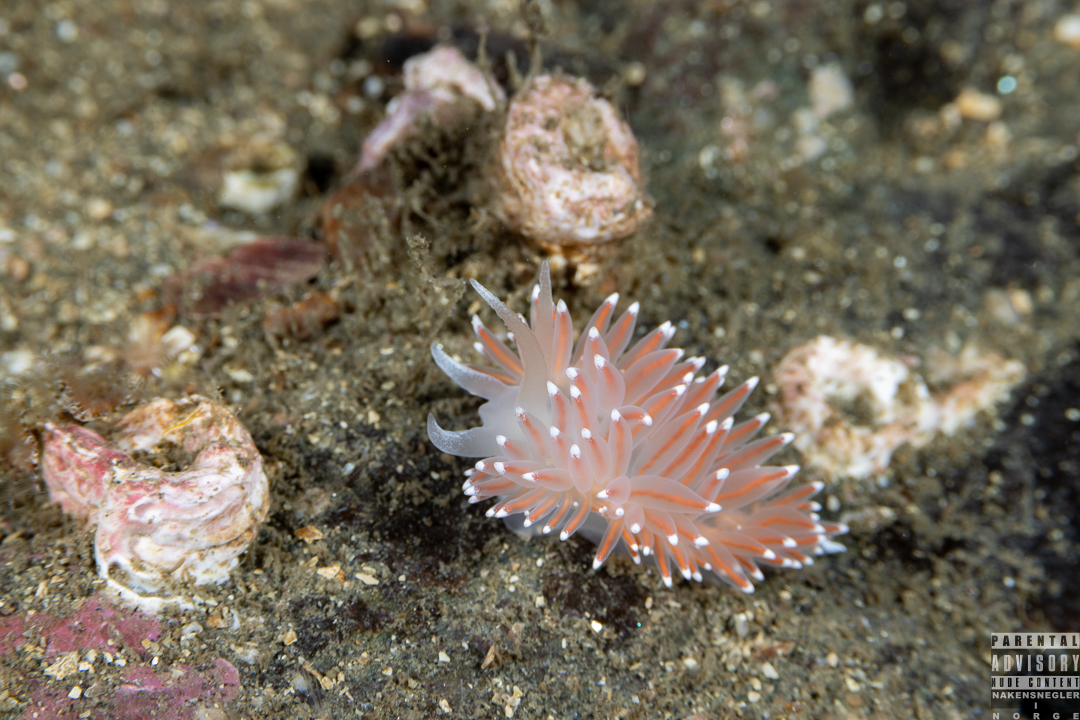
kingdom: Animalia
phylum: Mollusca
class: Gastropoda
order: Nudibranchia
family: Coryphellidae
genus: Coryphella
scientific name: Coryphella nobilis
